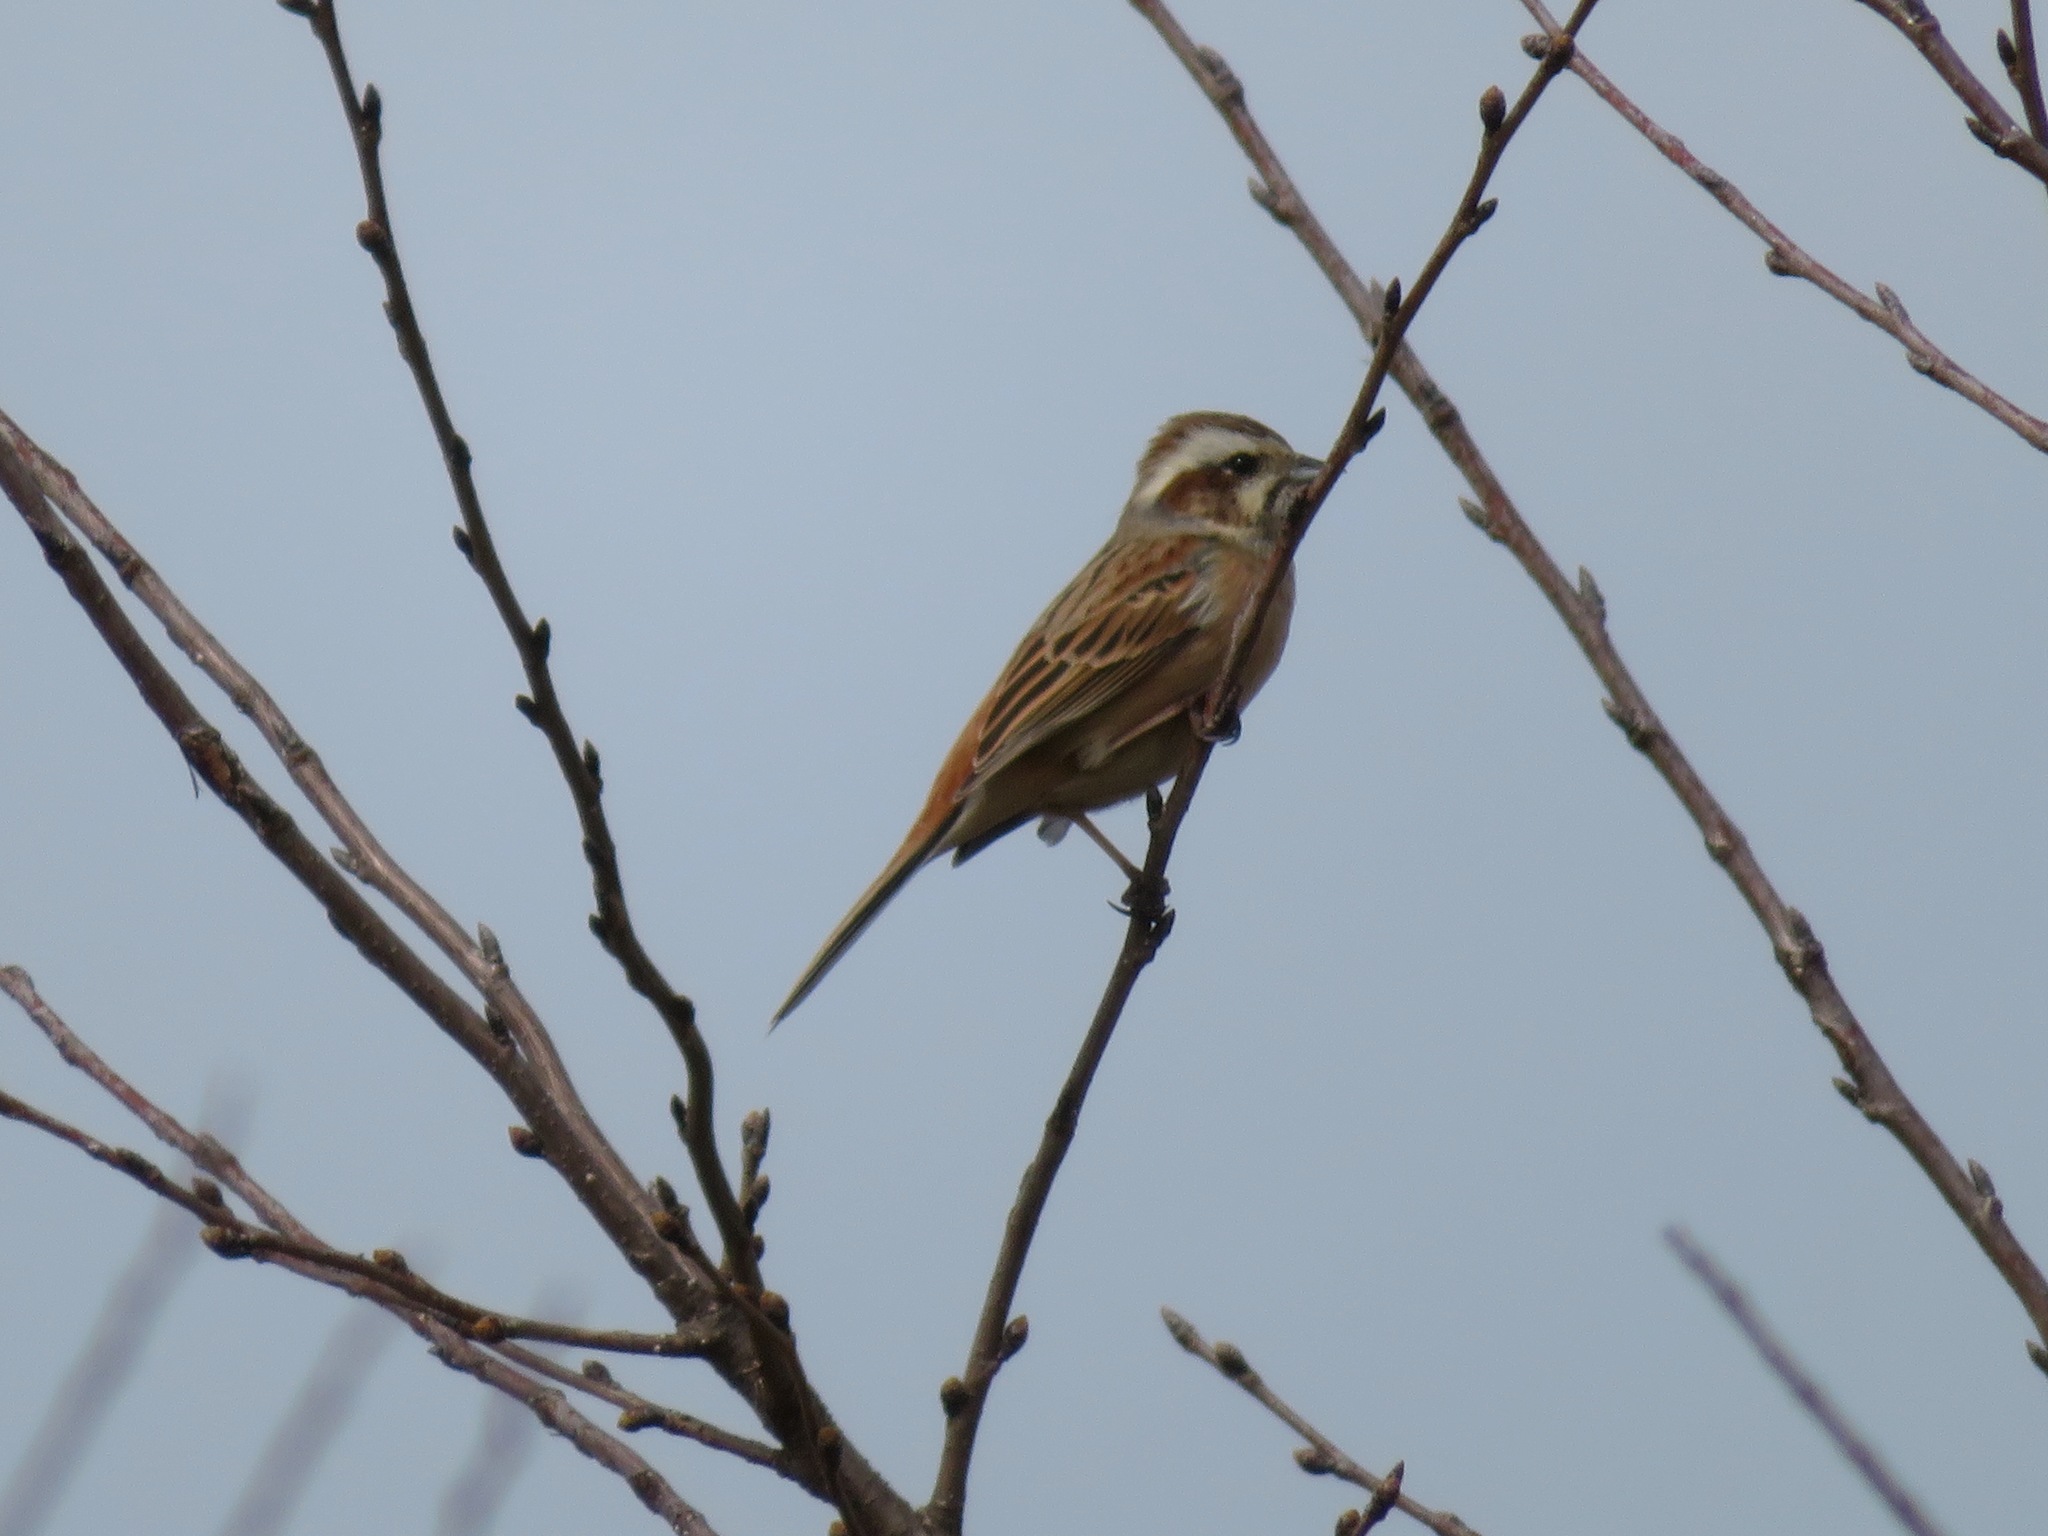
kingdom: Animalia
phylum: Chordata
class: Aves
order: Passeriformes
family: Emberizidae
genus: Emberiza
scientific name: Emberiza cioides
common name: Meadow bunting
